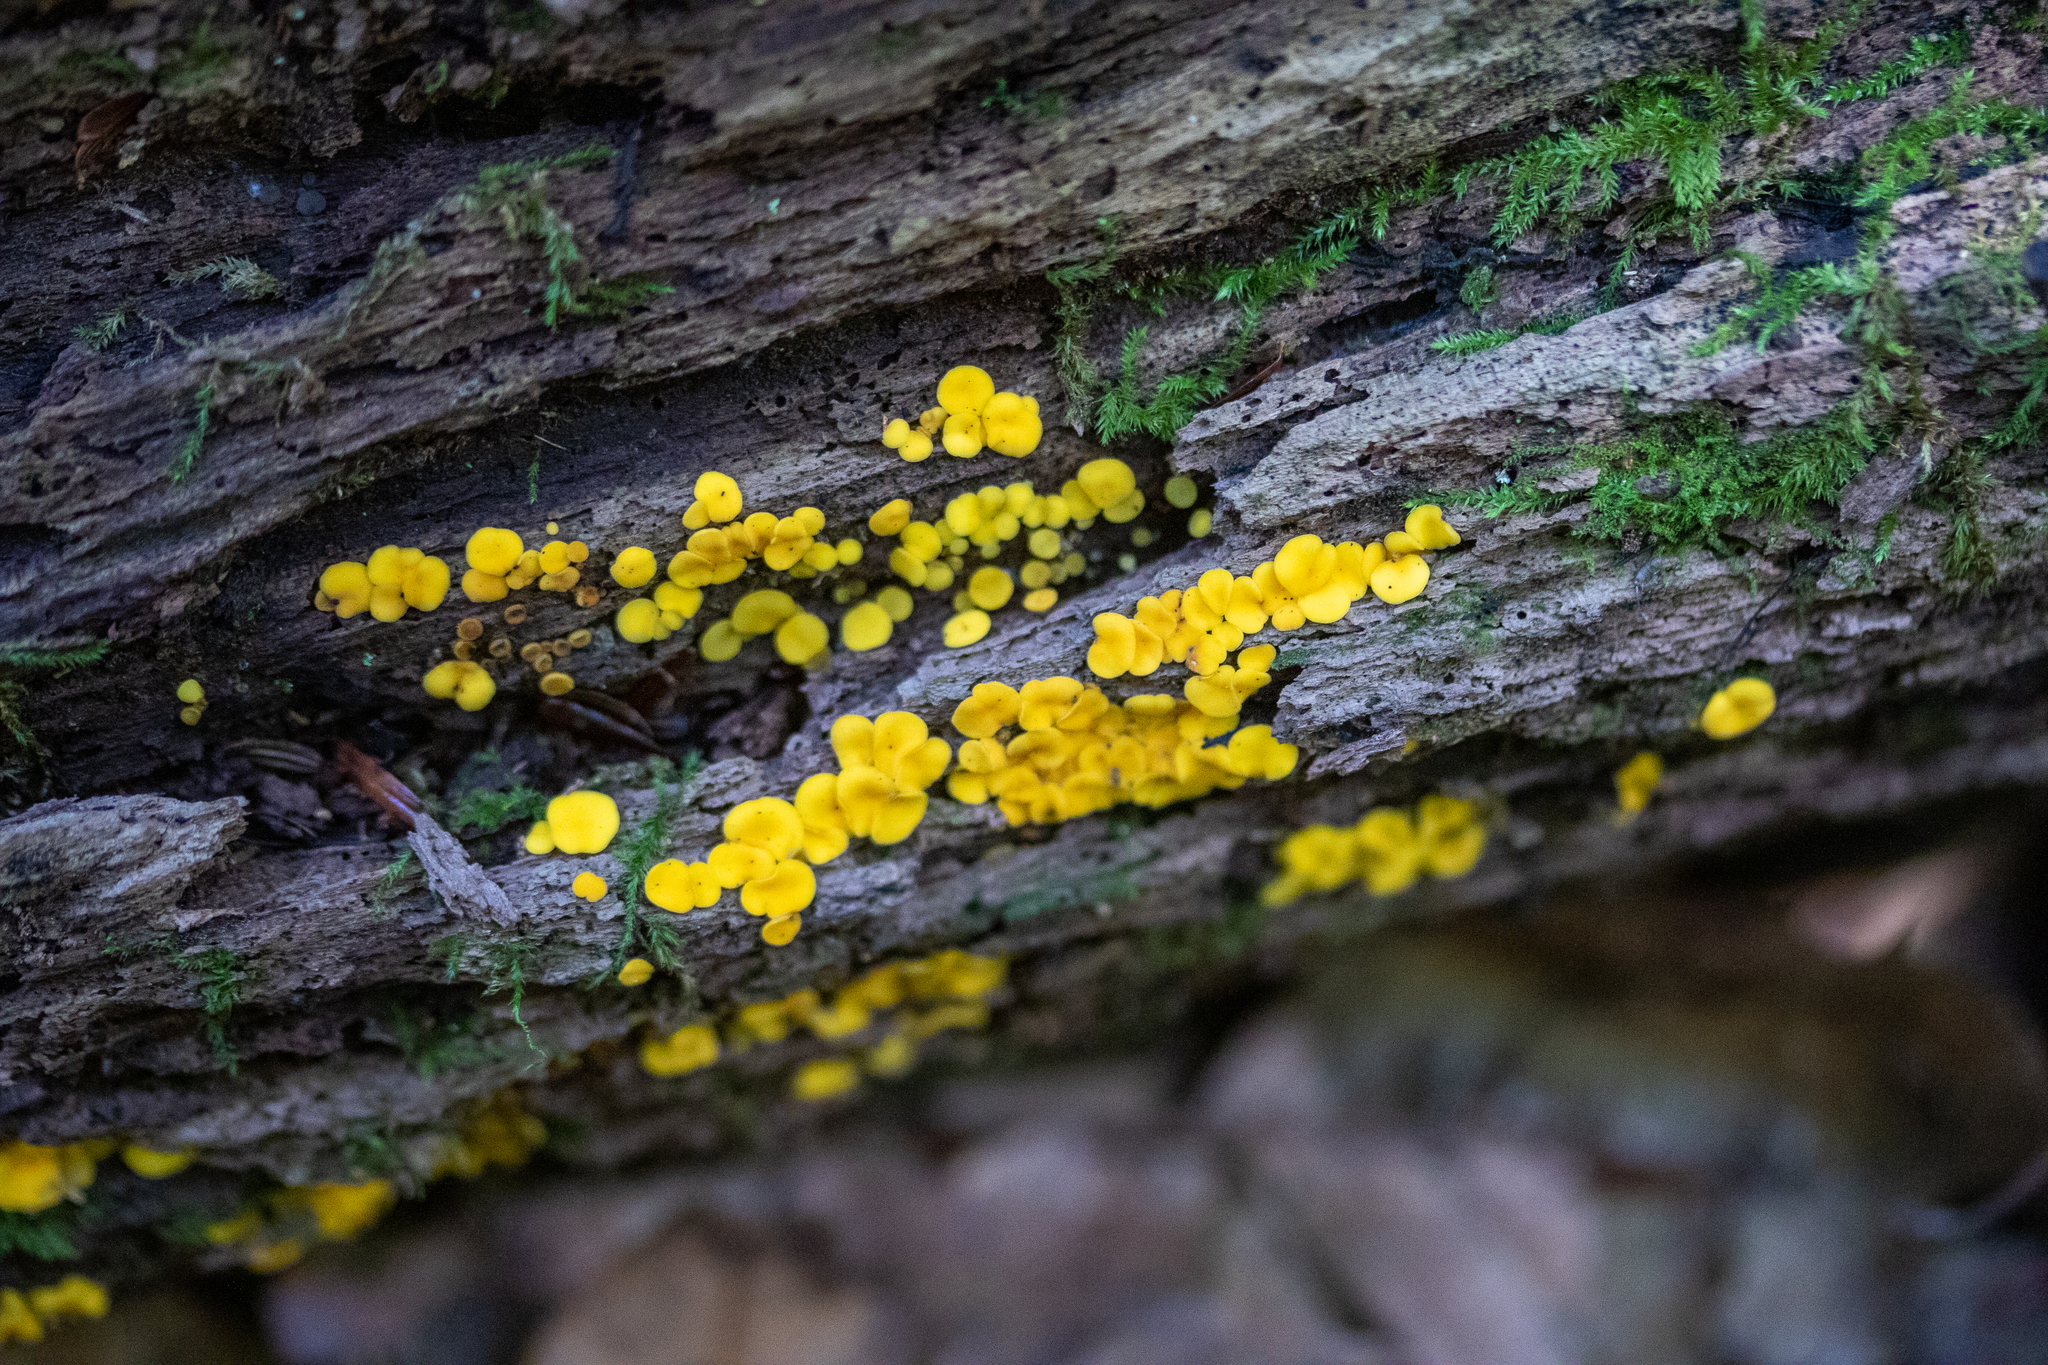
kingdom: Fungi
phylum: Ascomycota
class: Leotiomycetes
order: Helotiales
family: Pezizellaceae
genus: Calycina
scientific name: Calycina citrina
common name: Yellow fairy cups
